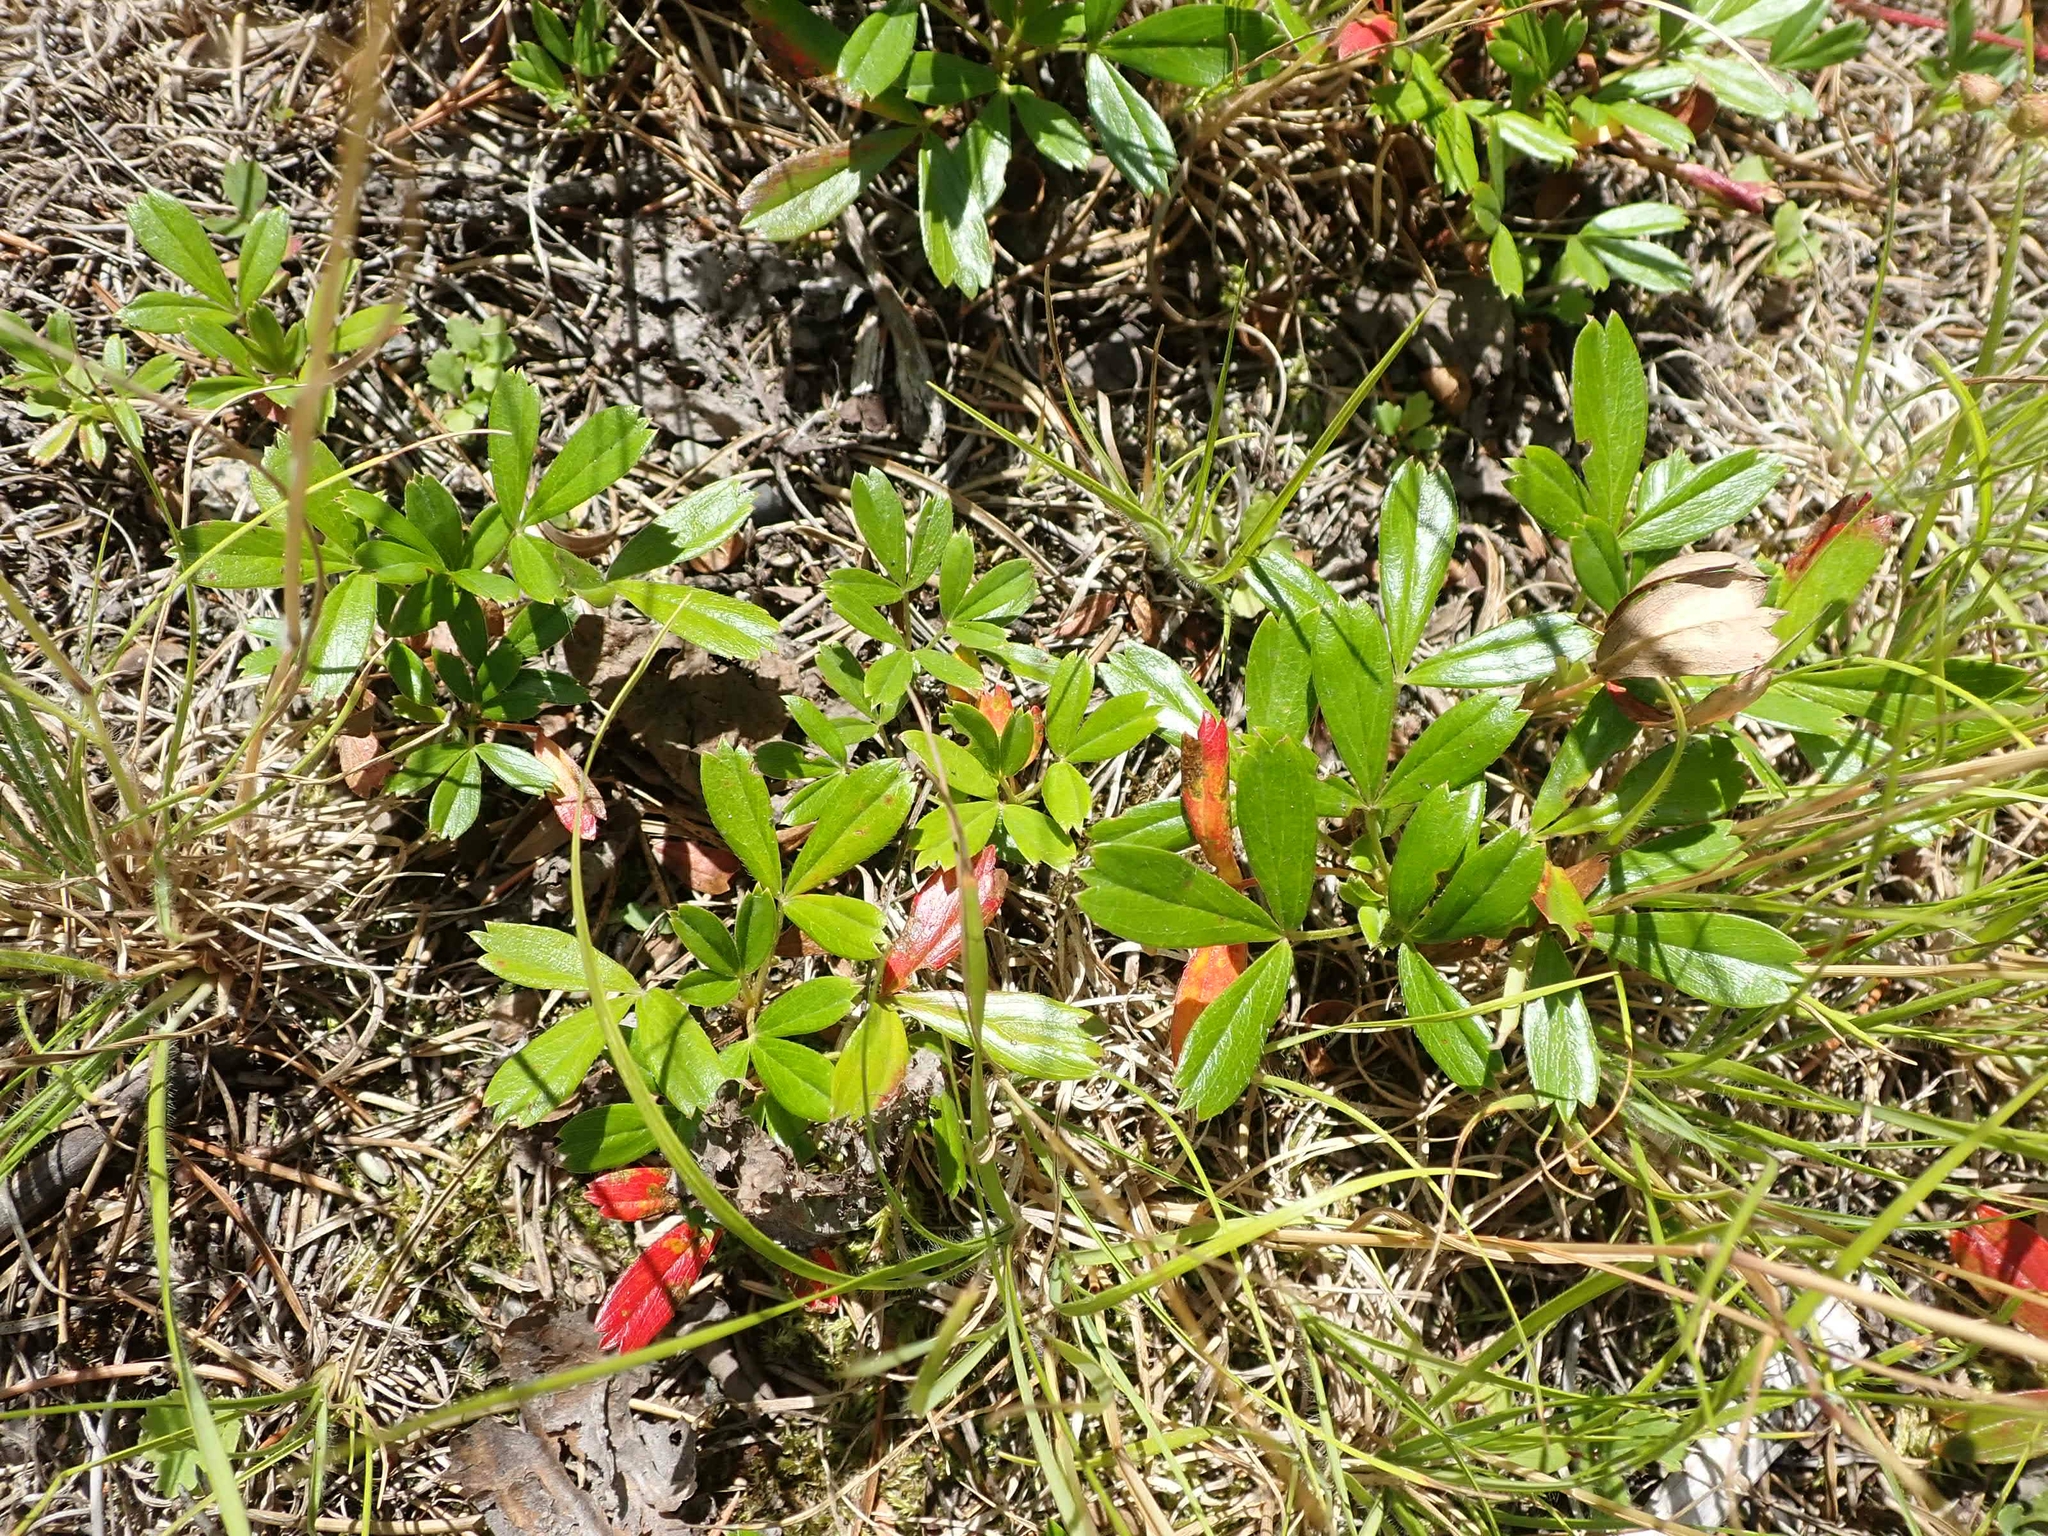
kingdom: Plantae
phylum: Tracheophyta
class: Magnoliopsida
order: Rosales
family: Rosaceae
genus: Sibbaldia
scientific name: Sibbaldia tridentata
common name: Three-toothed cinquefoil
